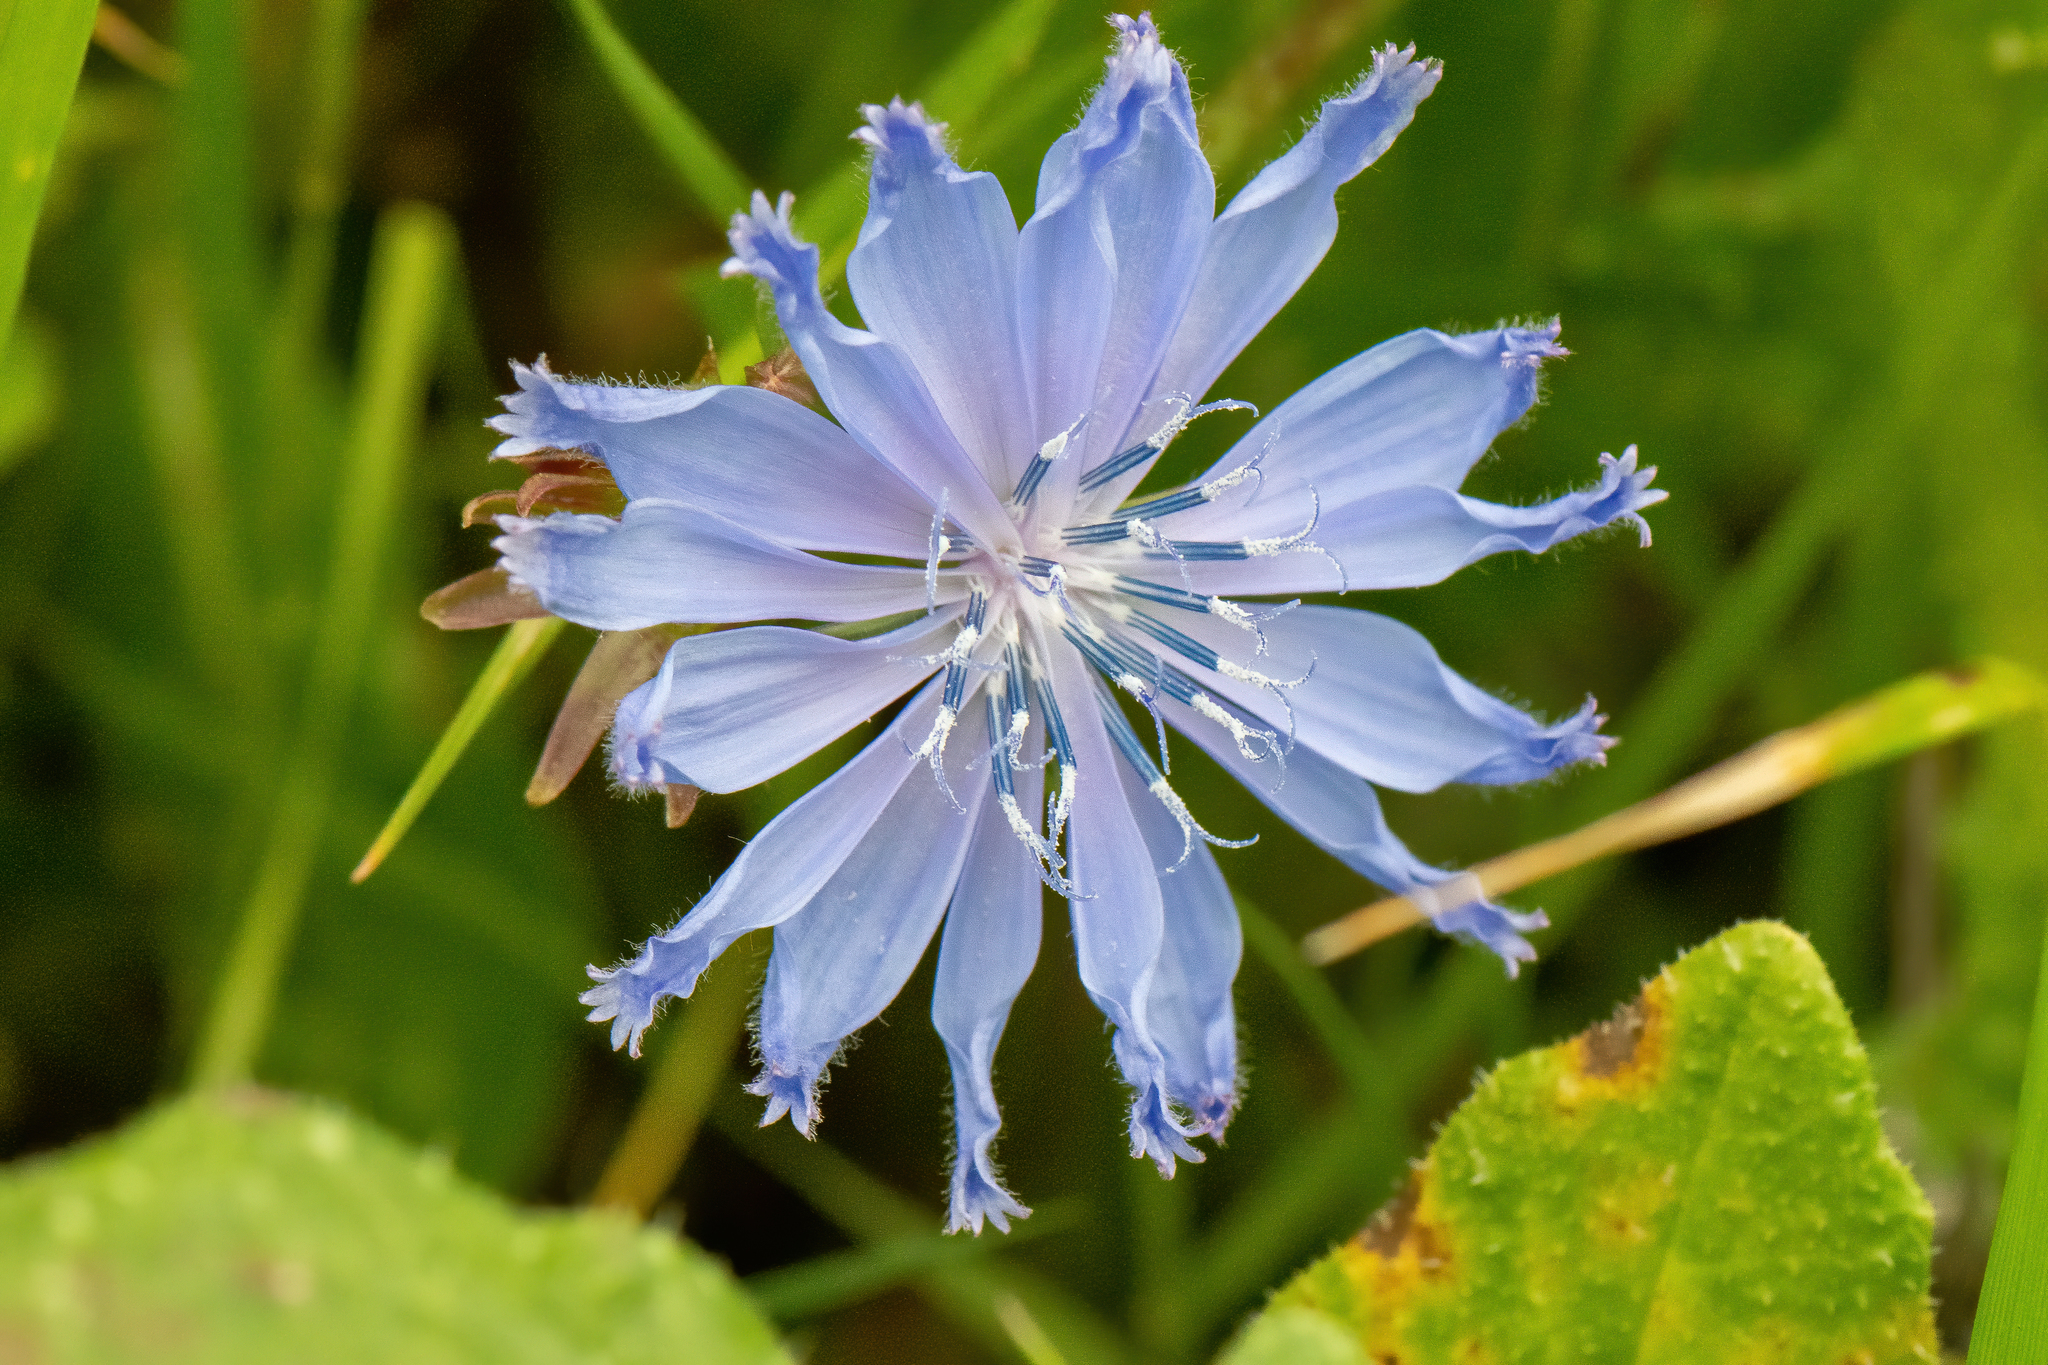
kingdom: Plantae
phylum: Tracheophyta
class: Magnoliopsida
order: Asterales
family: Asteraceae
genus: Cichorium
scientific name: Cichorium intybus
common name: Chicory
